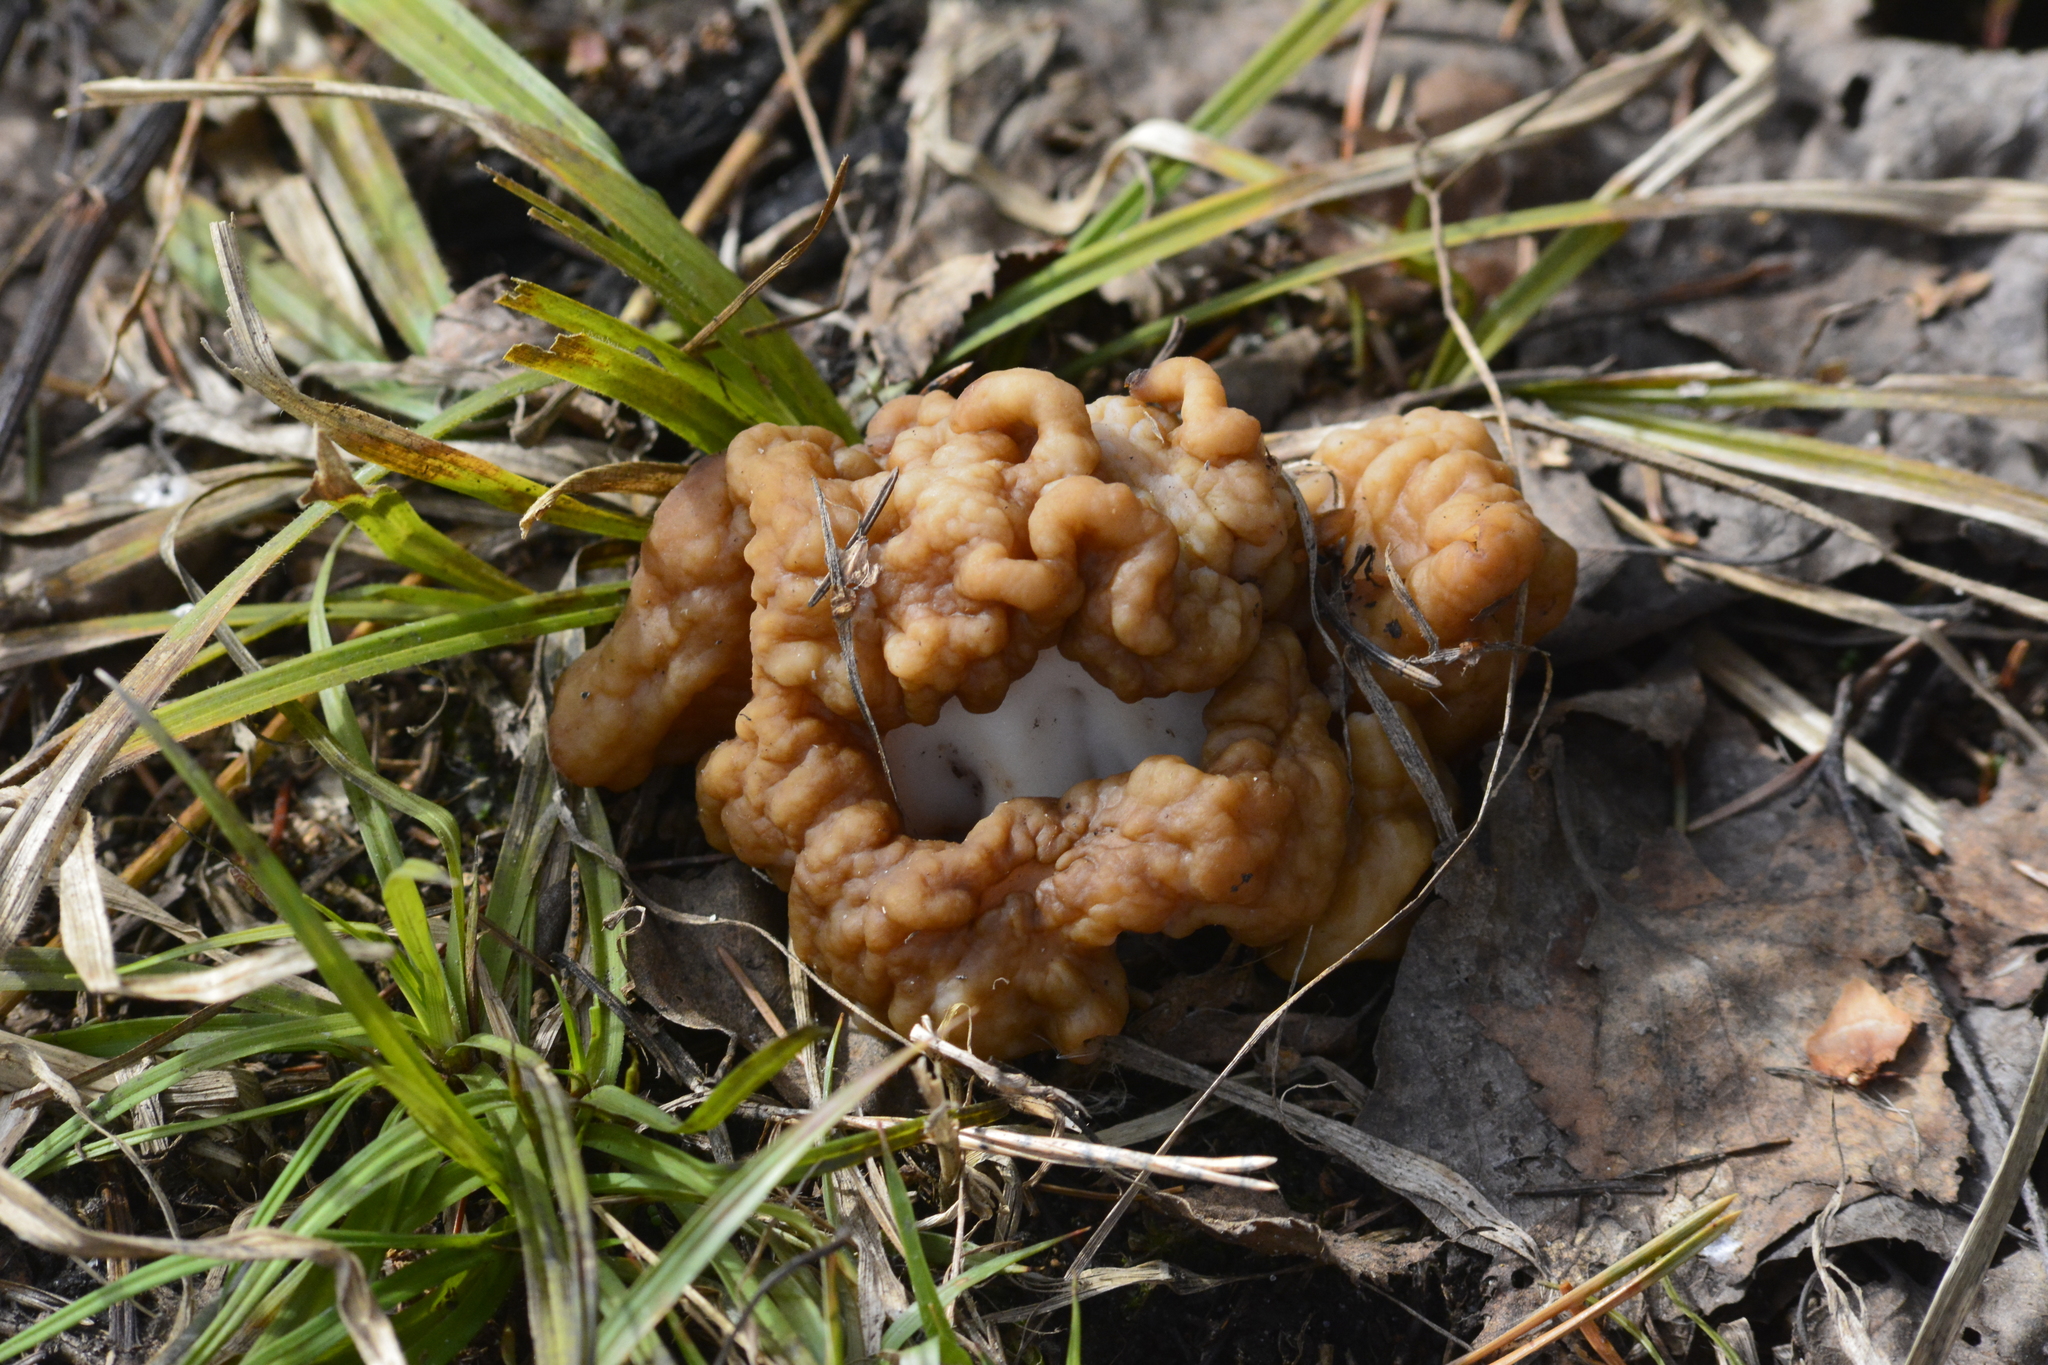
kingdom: Fungi
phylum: Ascomycota
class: Pezizomycetes
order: Pezizales
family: Discinaceae
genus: Gyromitra
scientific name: Gyromitra gigas
